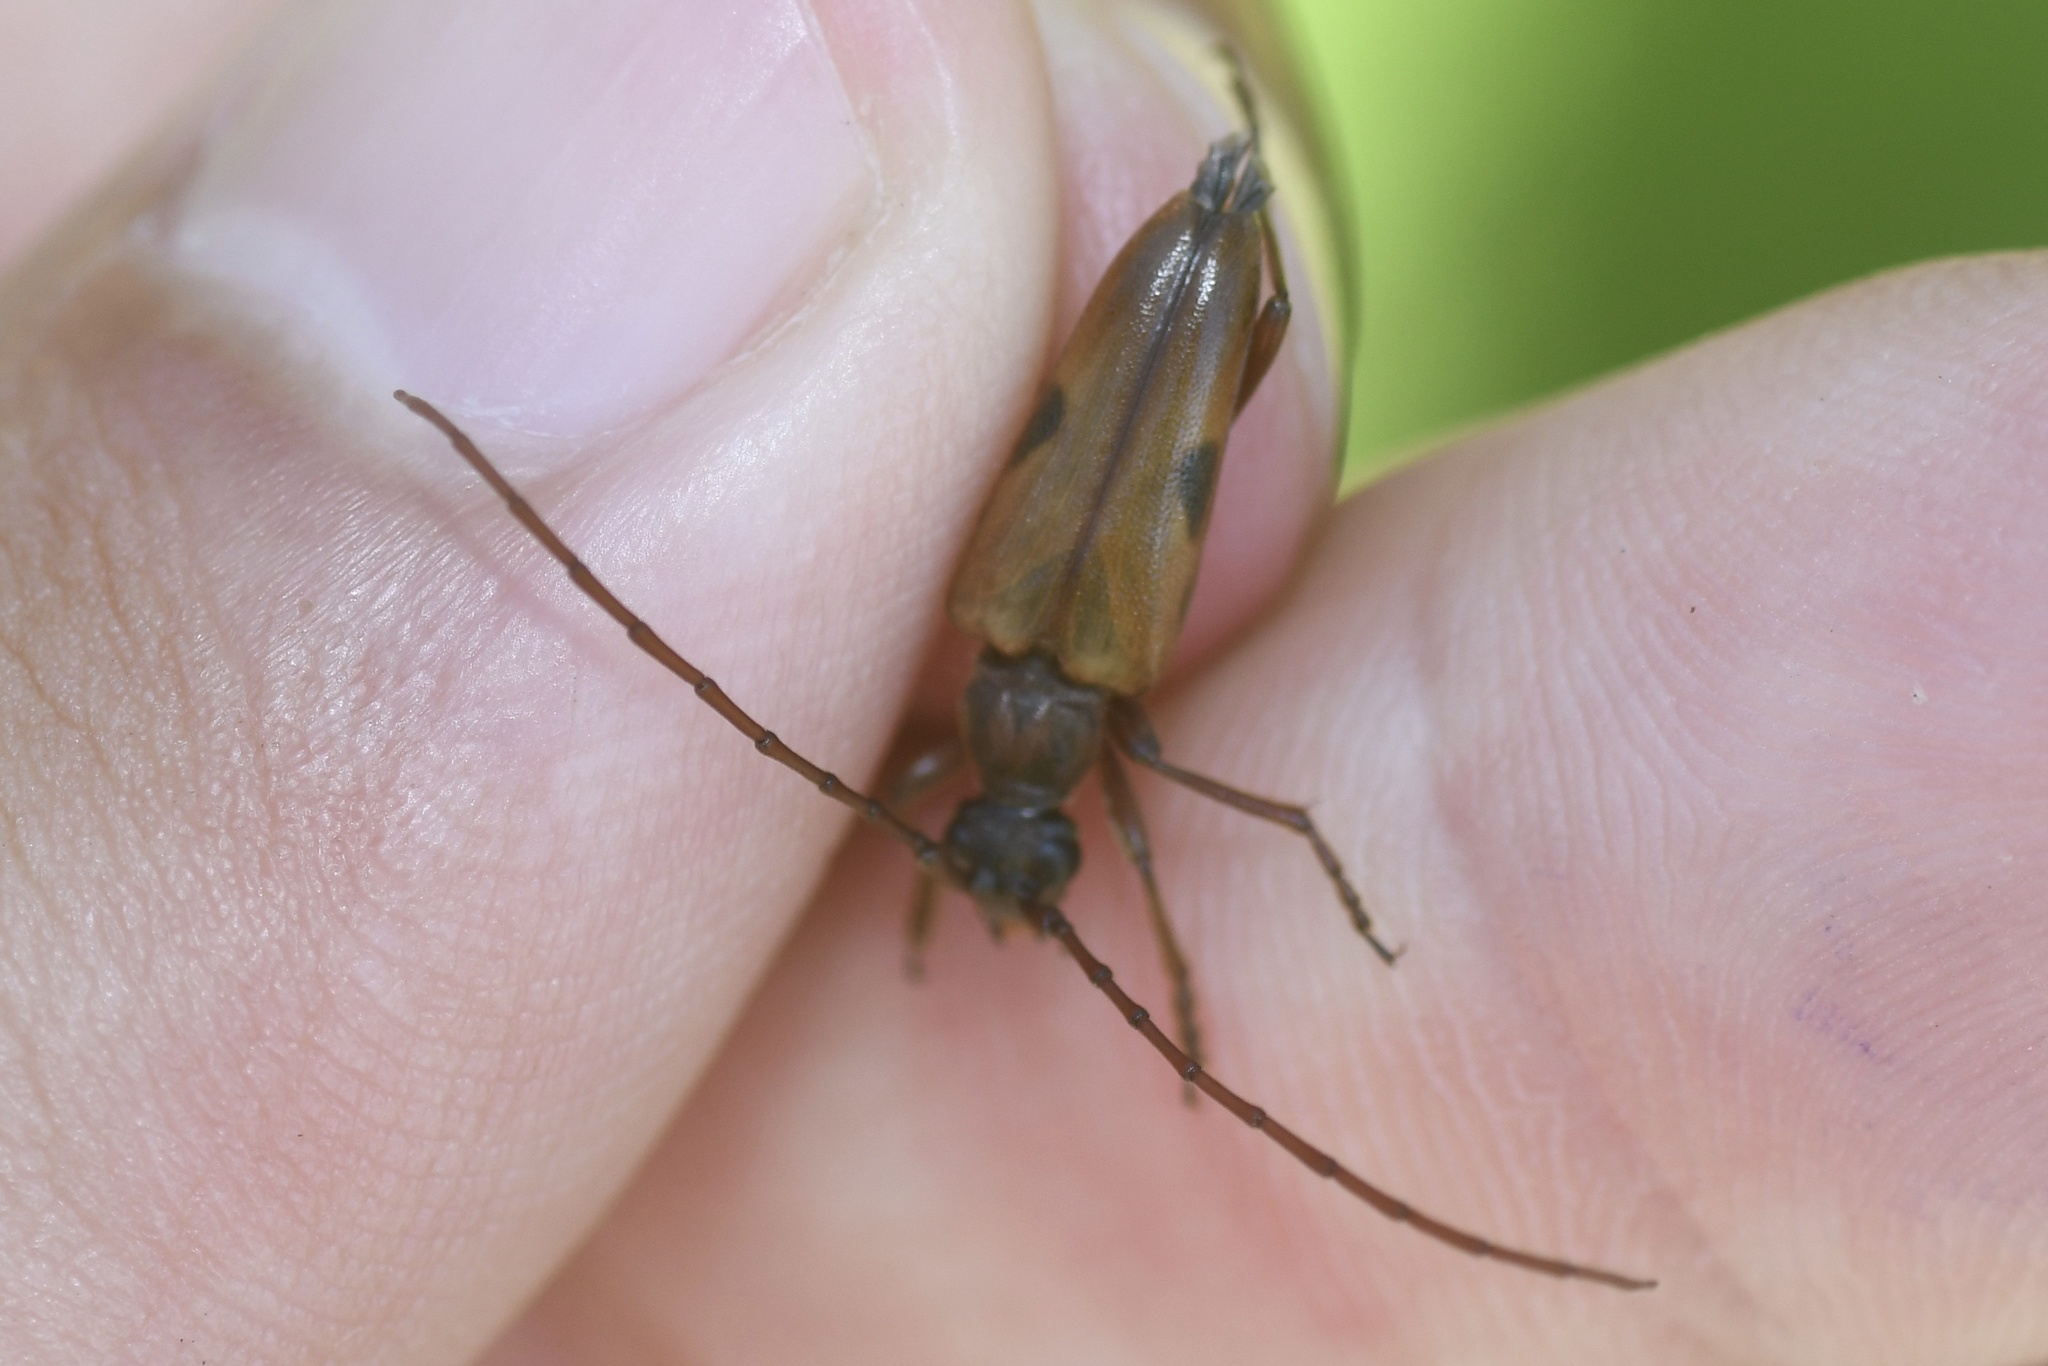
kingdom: Animalia
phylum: Arthropoda
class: Insecta
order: Coleoptera
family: Cerambycidae
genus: Lepturopsis
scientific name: Lepturopsis biforis
